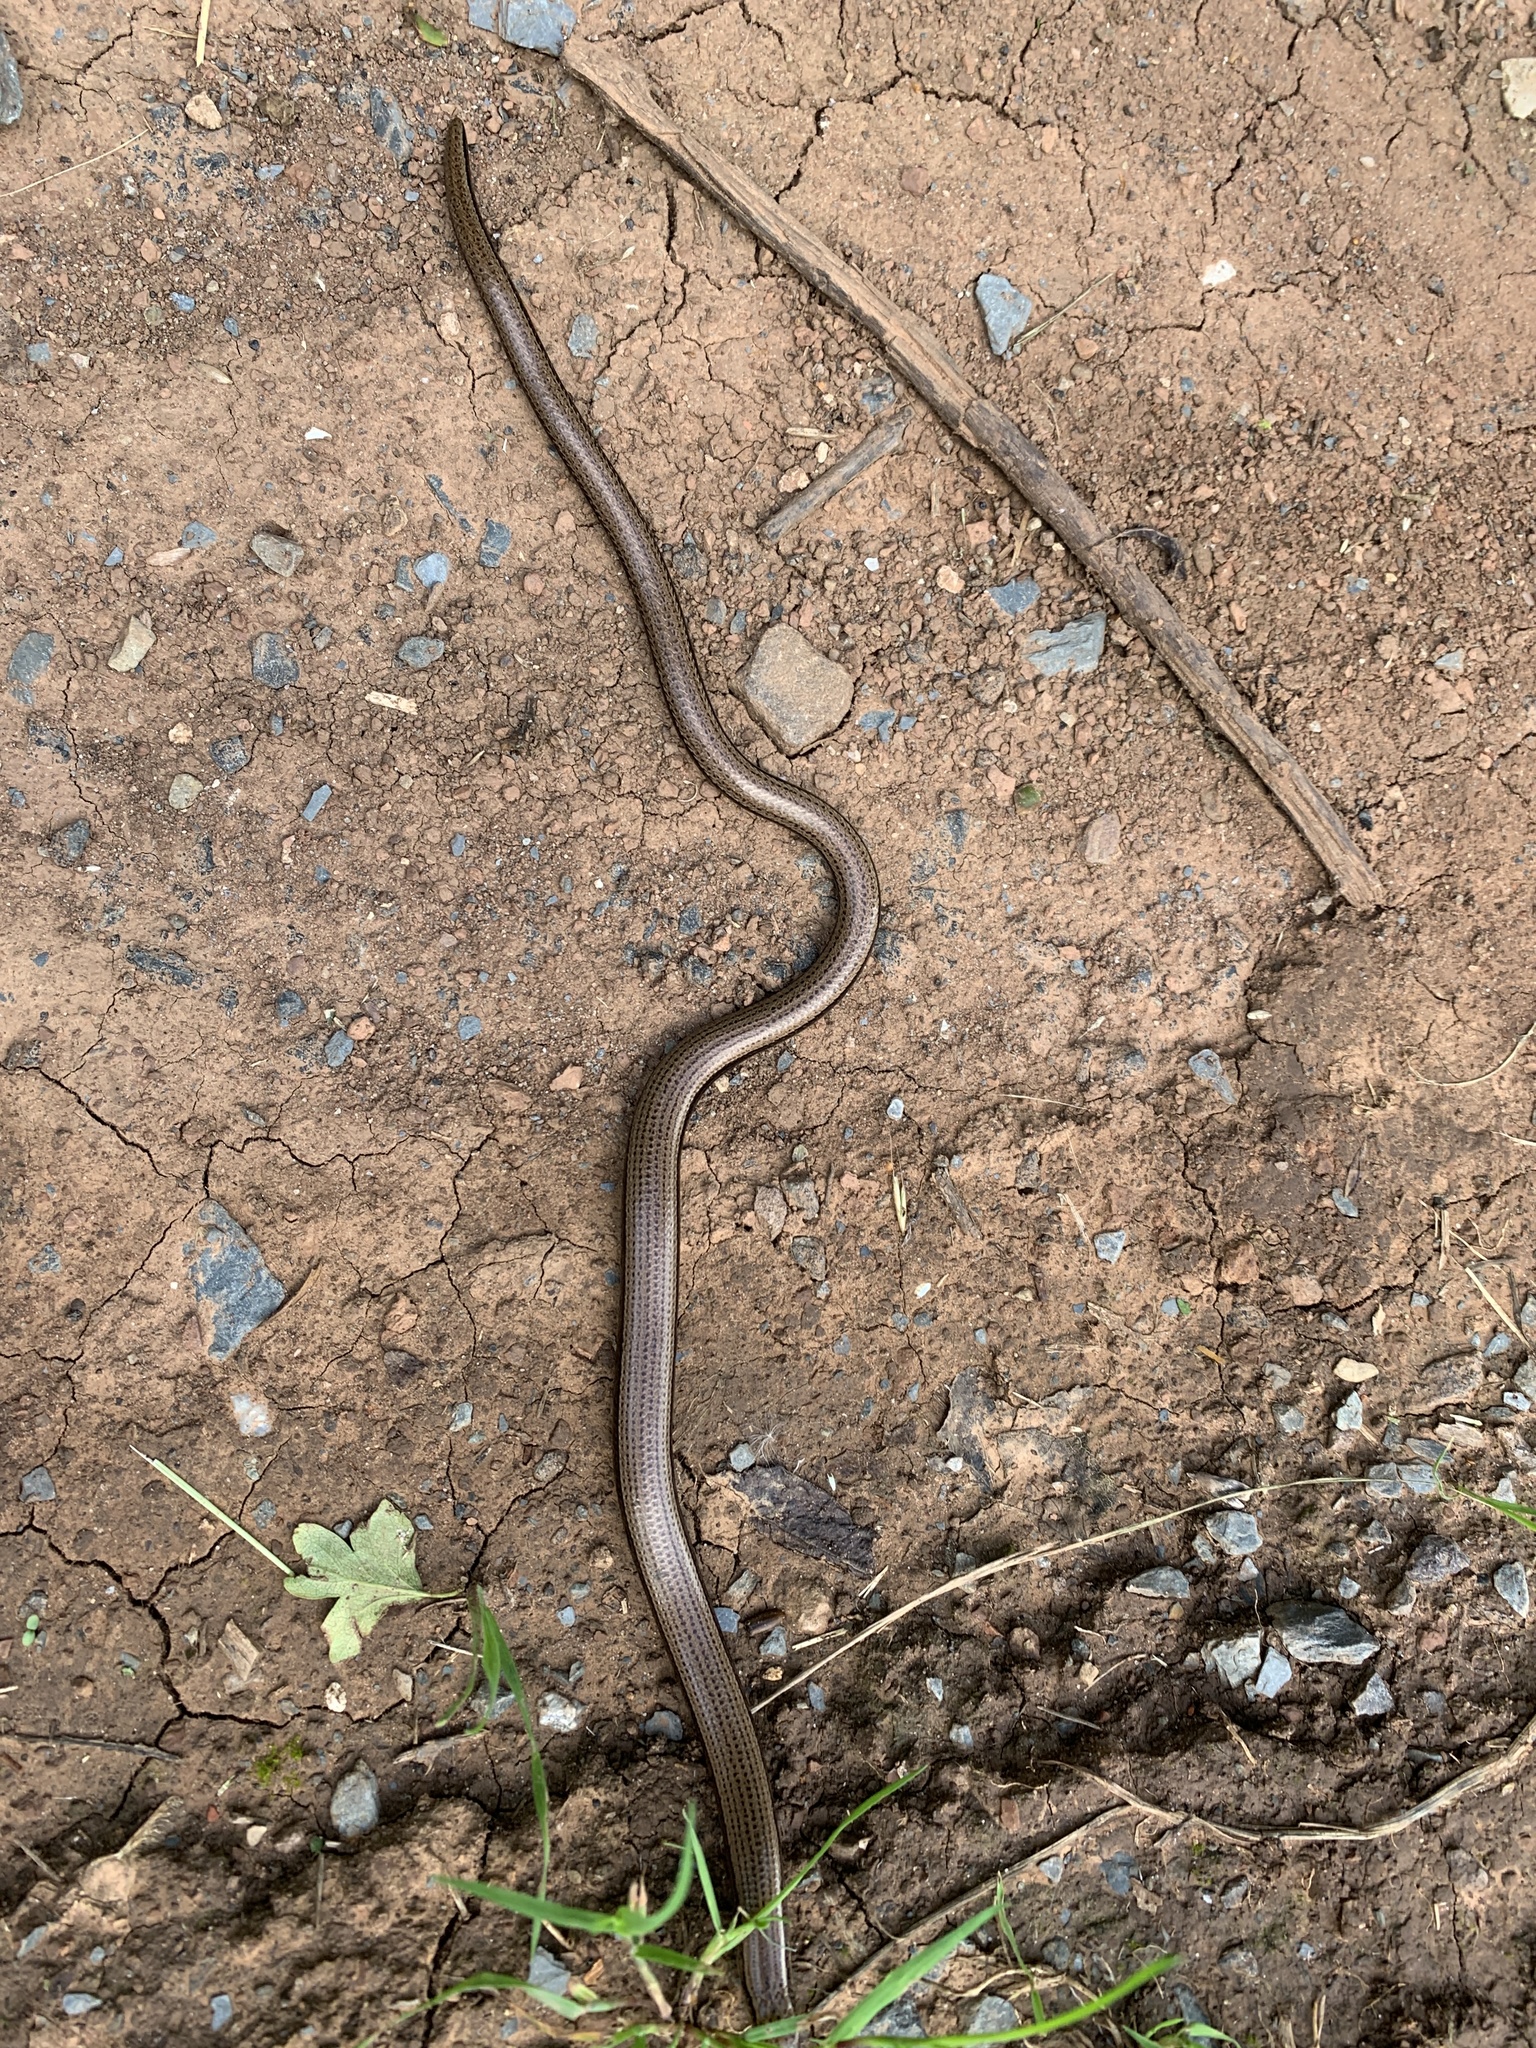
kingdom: Animalia
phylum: Chordata
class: Squamata
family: Anguidae
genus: Anguis
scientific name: Anguis fragilis
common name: Slow worm
